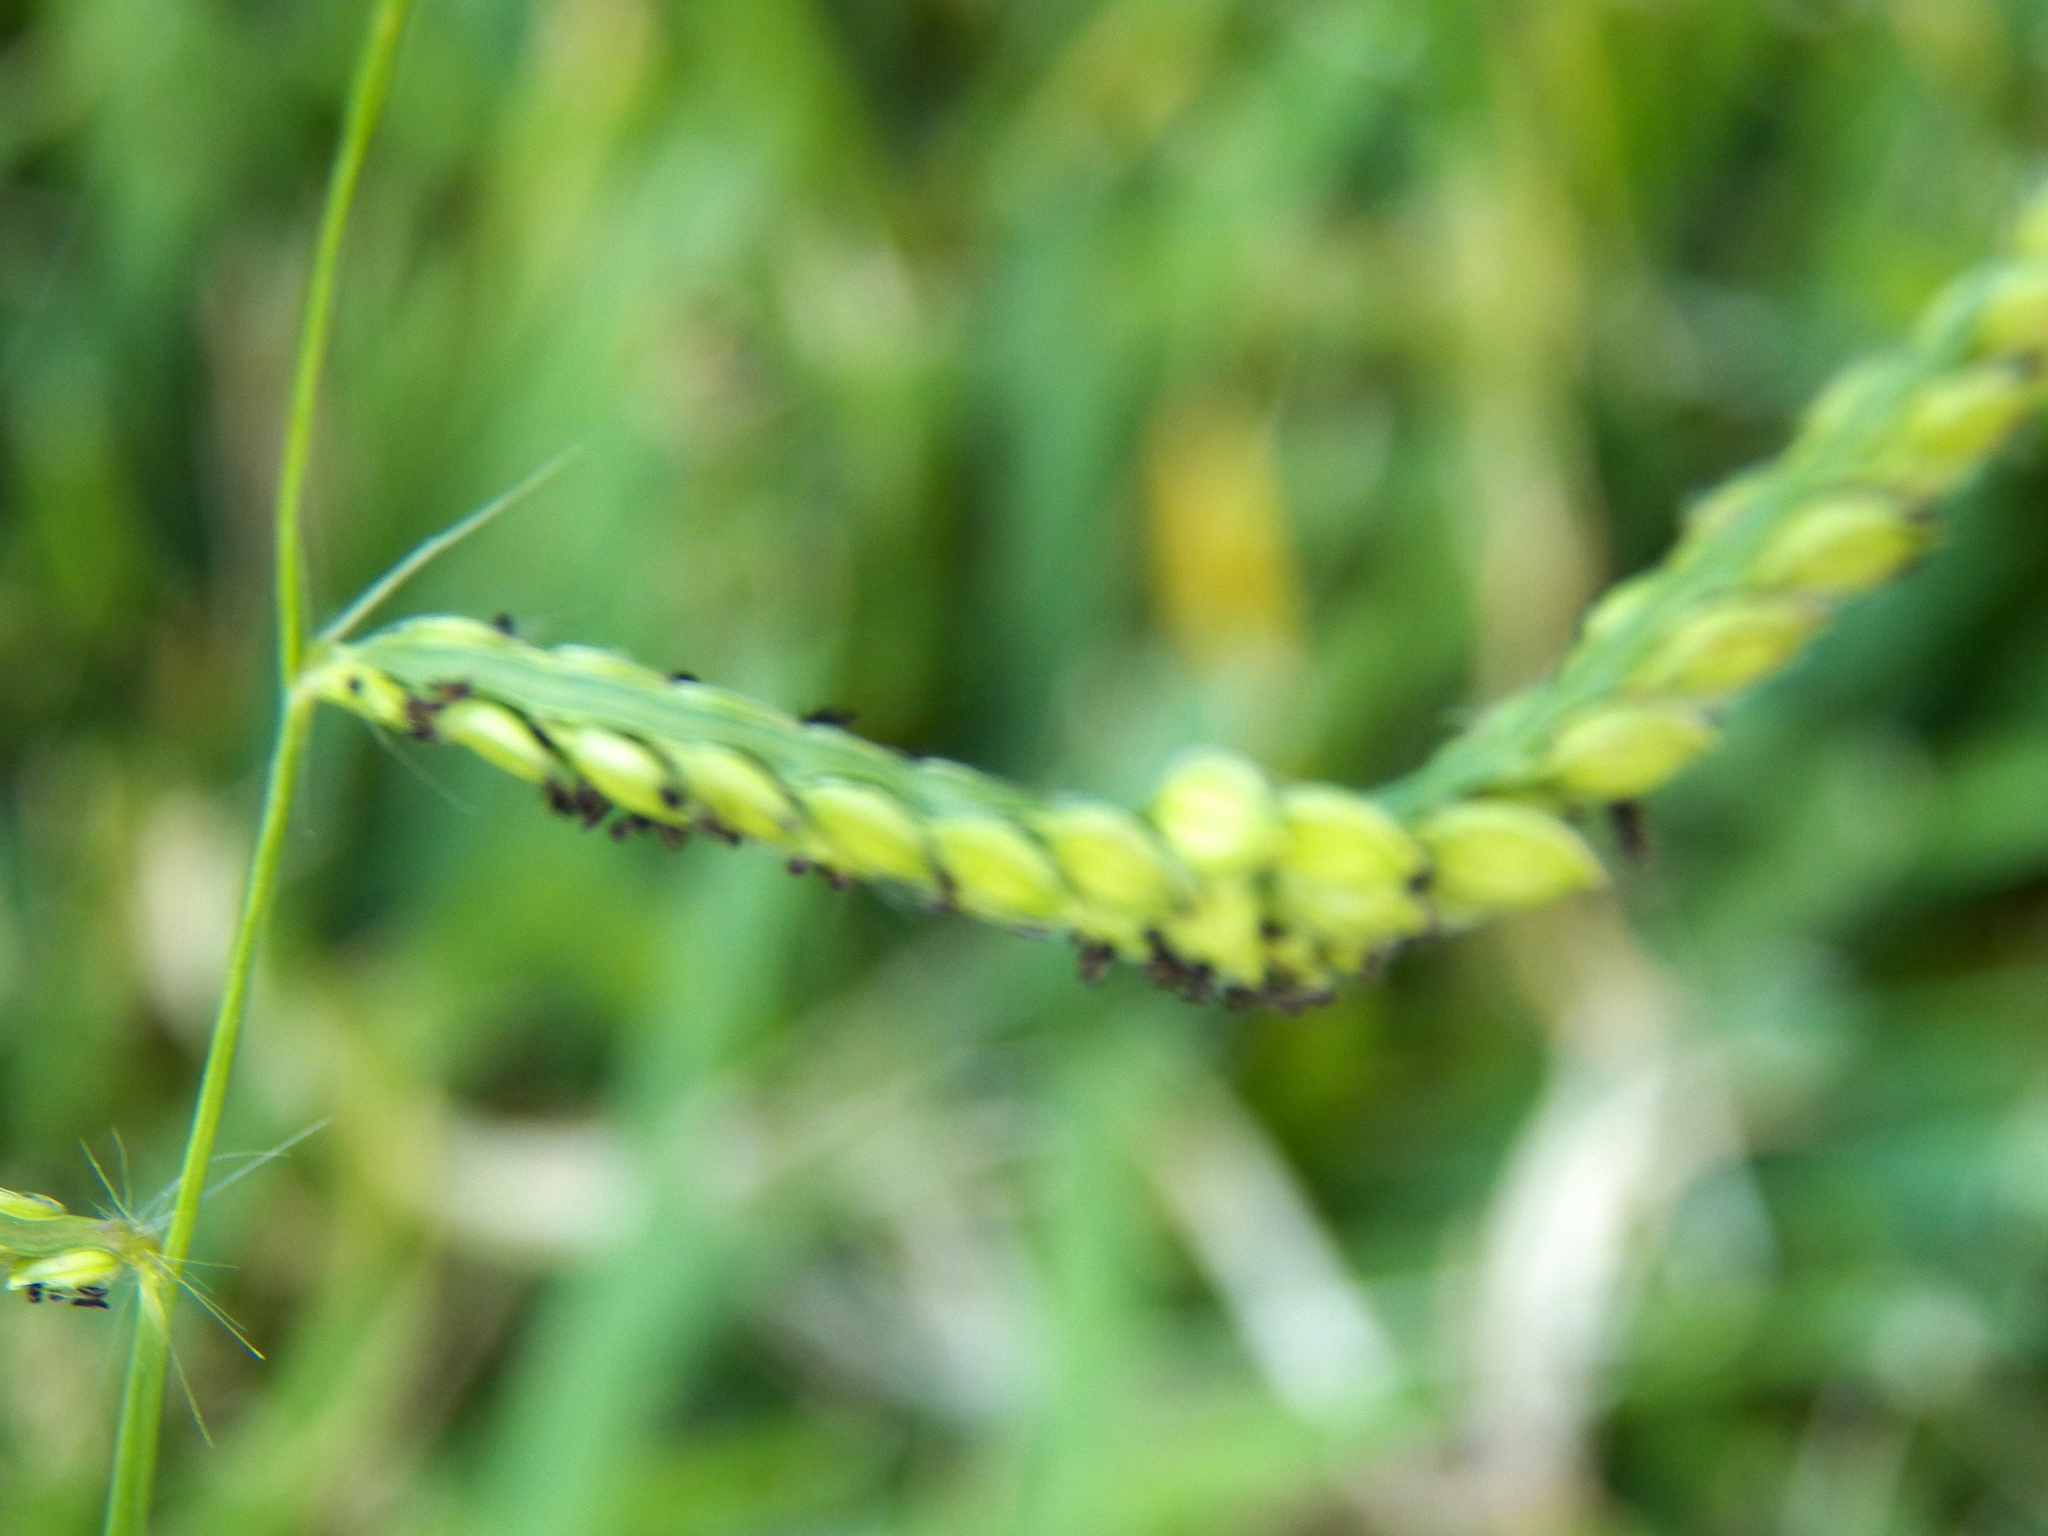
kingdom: Plantae
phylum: Tracheophyta
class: Liliopsida
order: Poales
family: Poaceae
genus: Paspalum
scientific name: Paspalum dilatatum
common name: Dallisgrass
